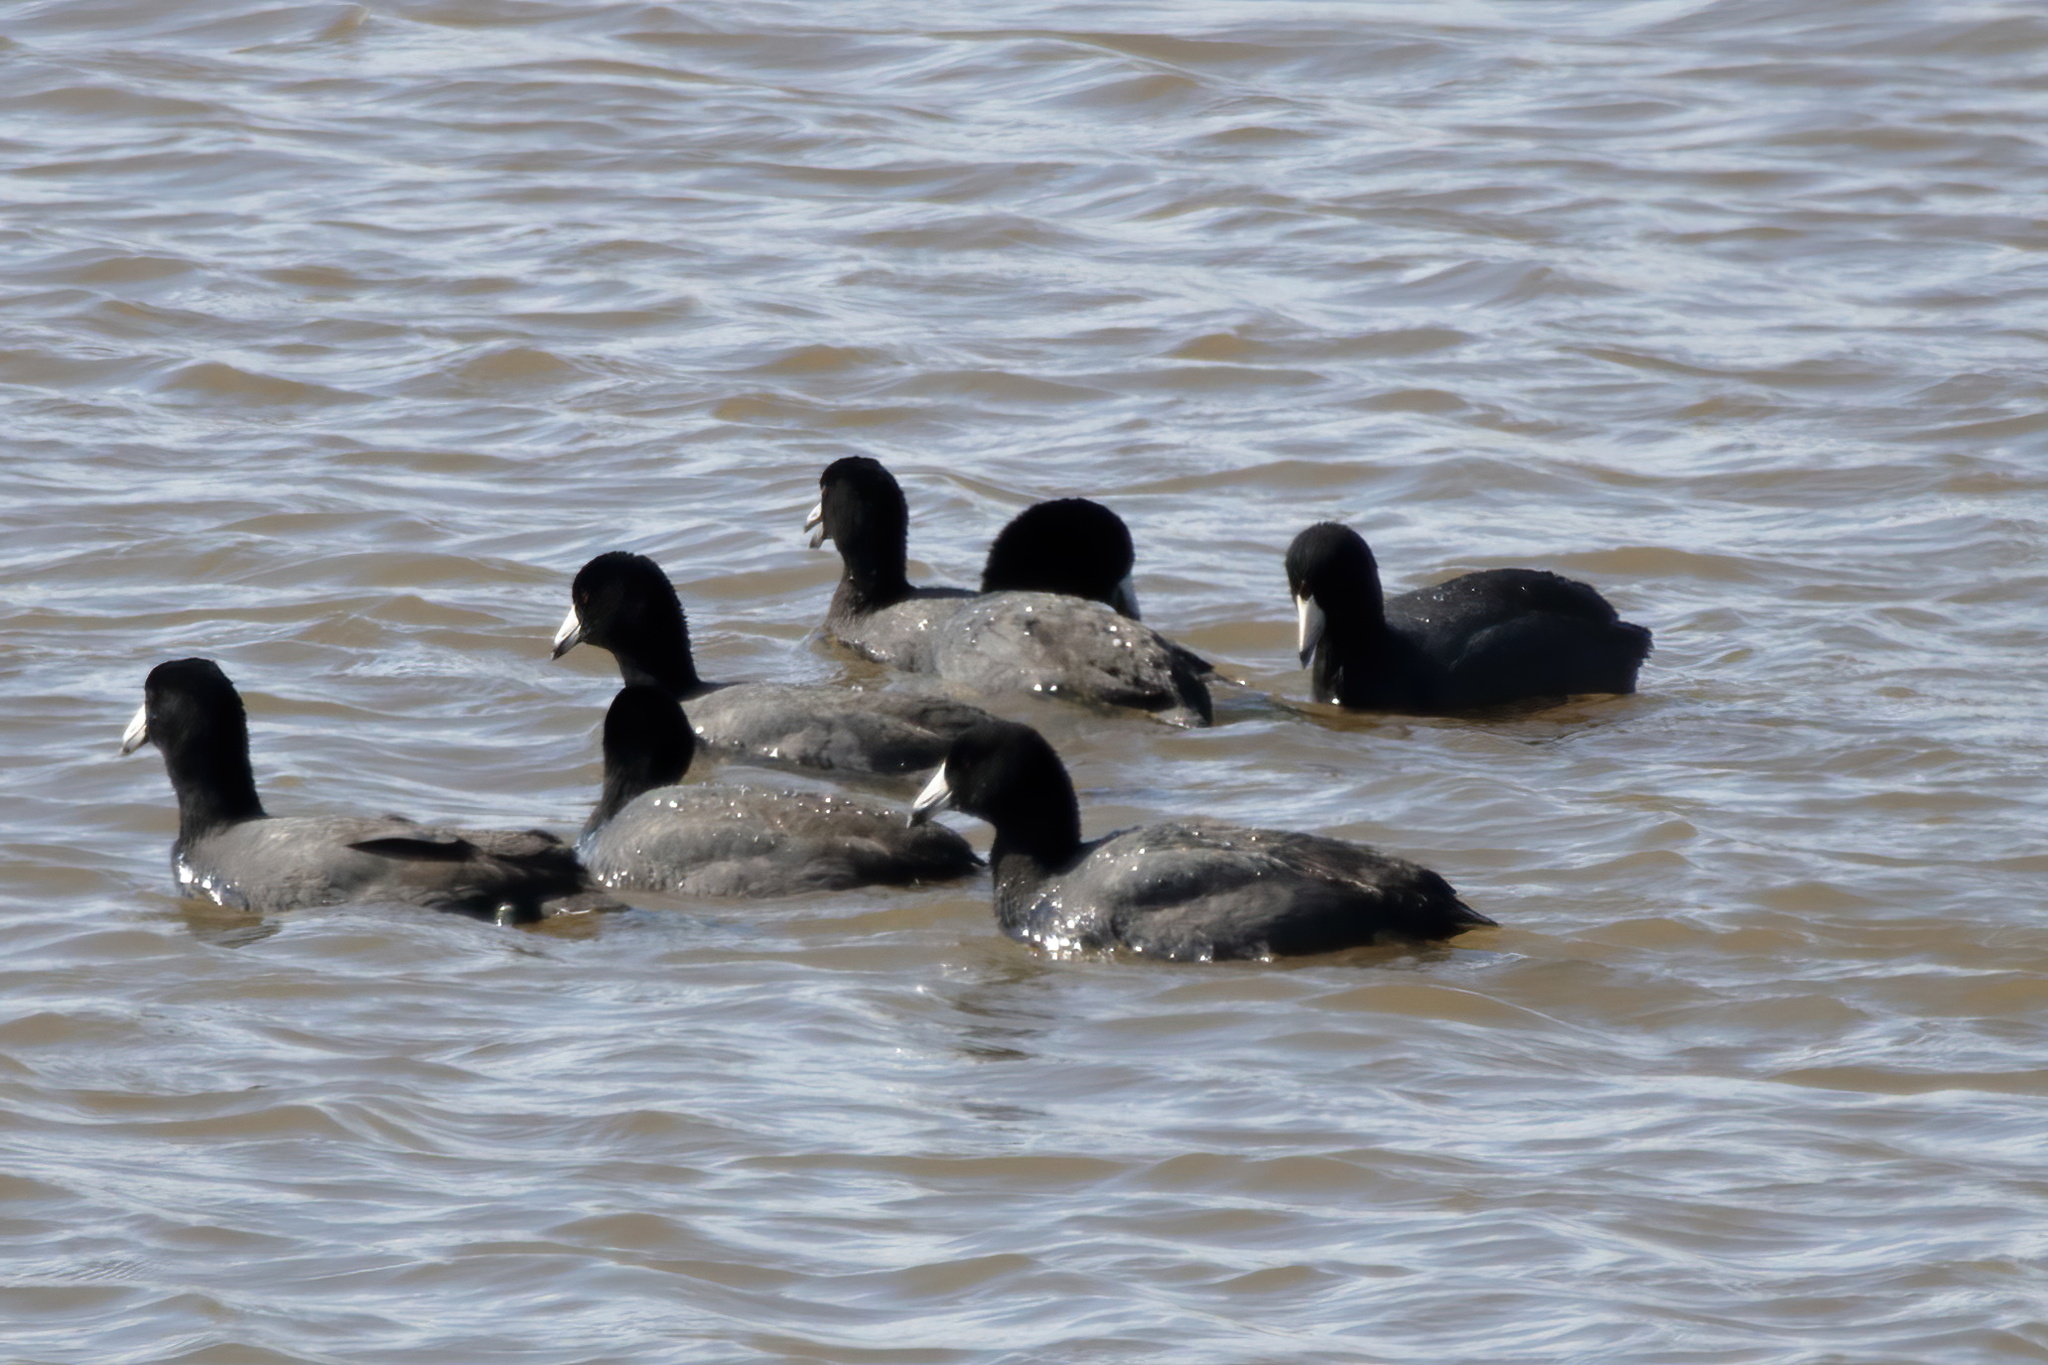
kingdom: Animalia
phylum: Chordata
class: Aves
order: Gruiformes
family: Rallidae
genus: Fulica
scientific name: Fulica americana
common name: American coot
